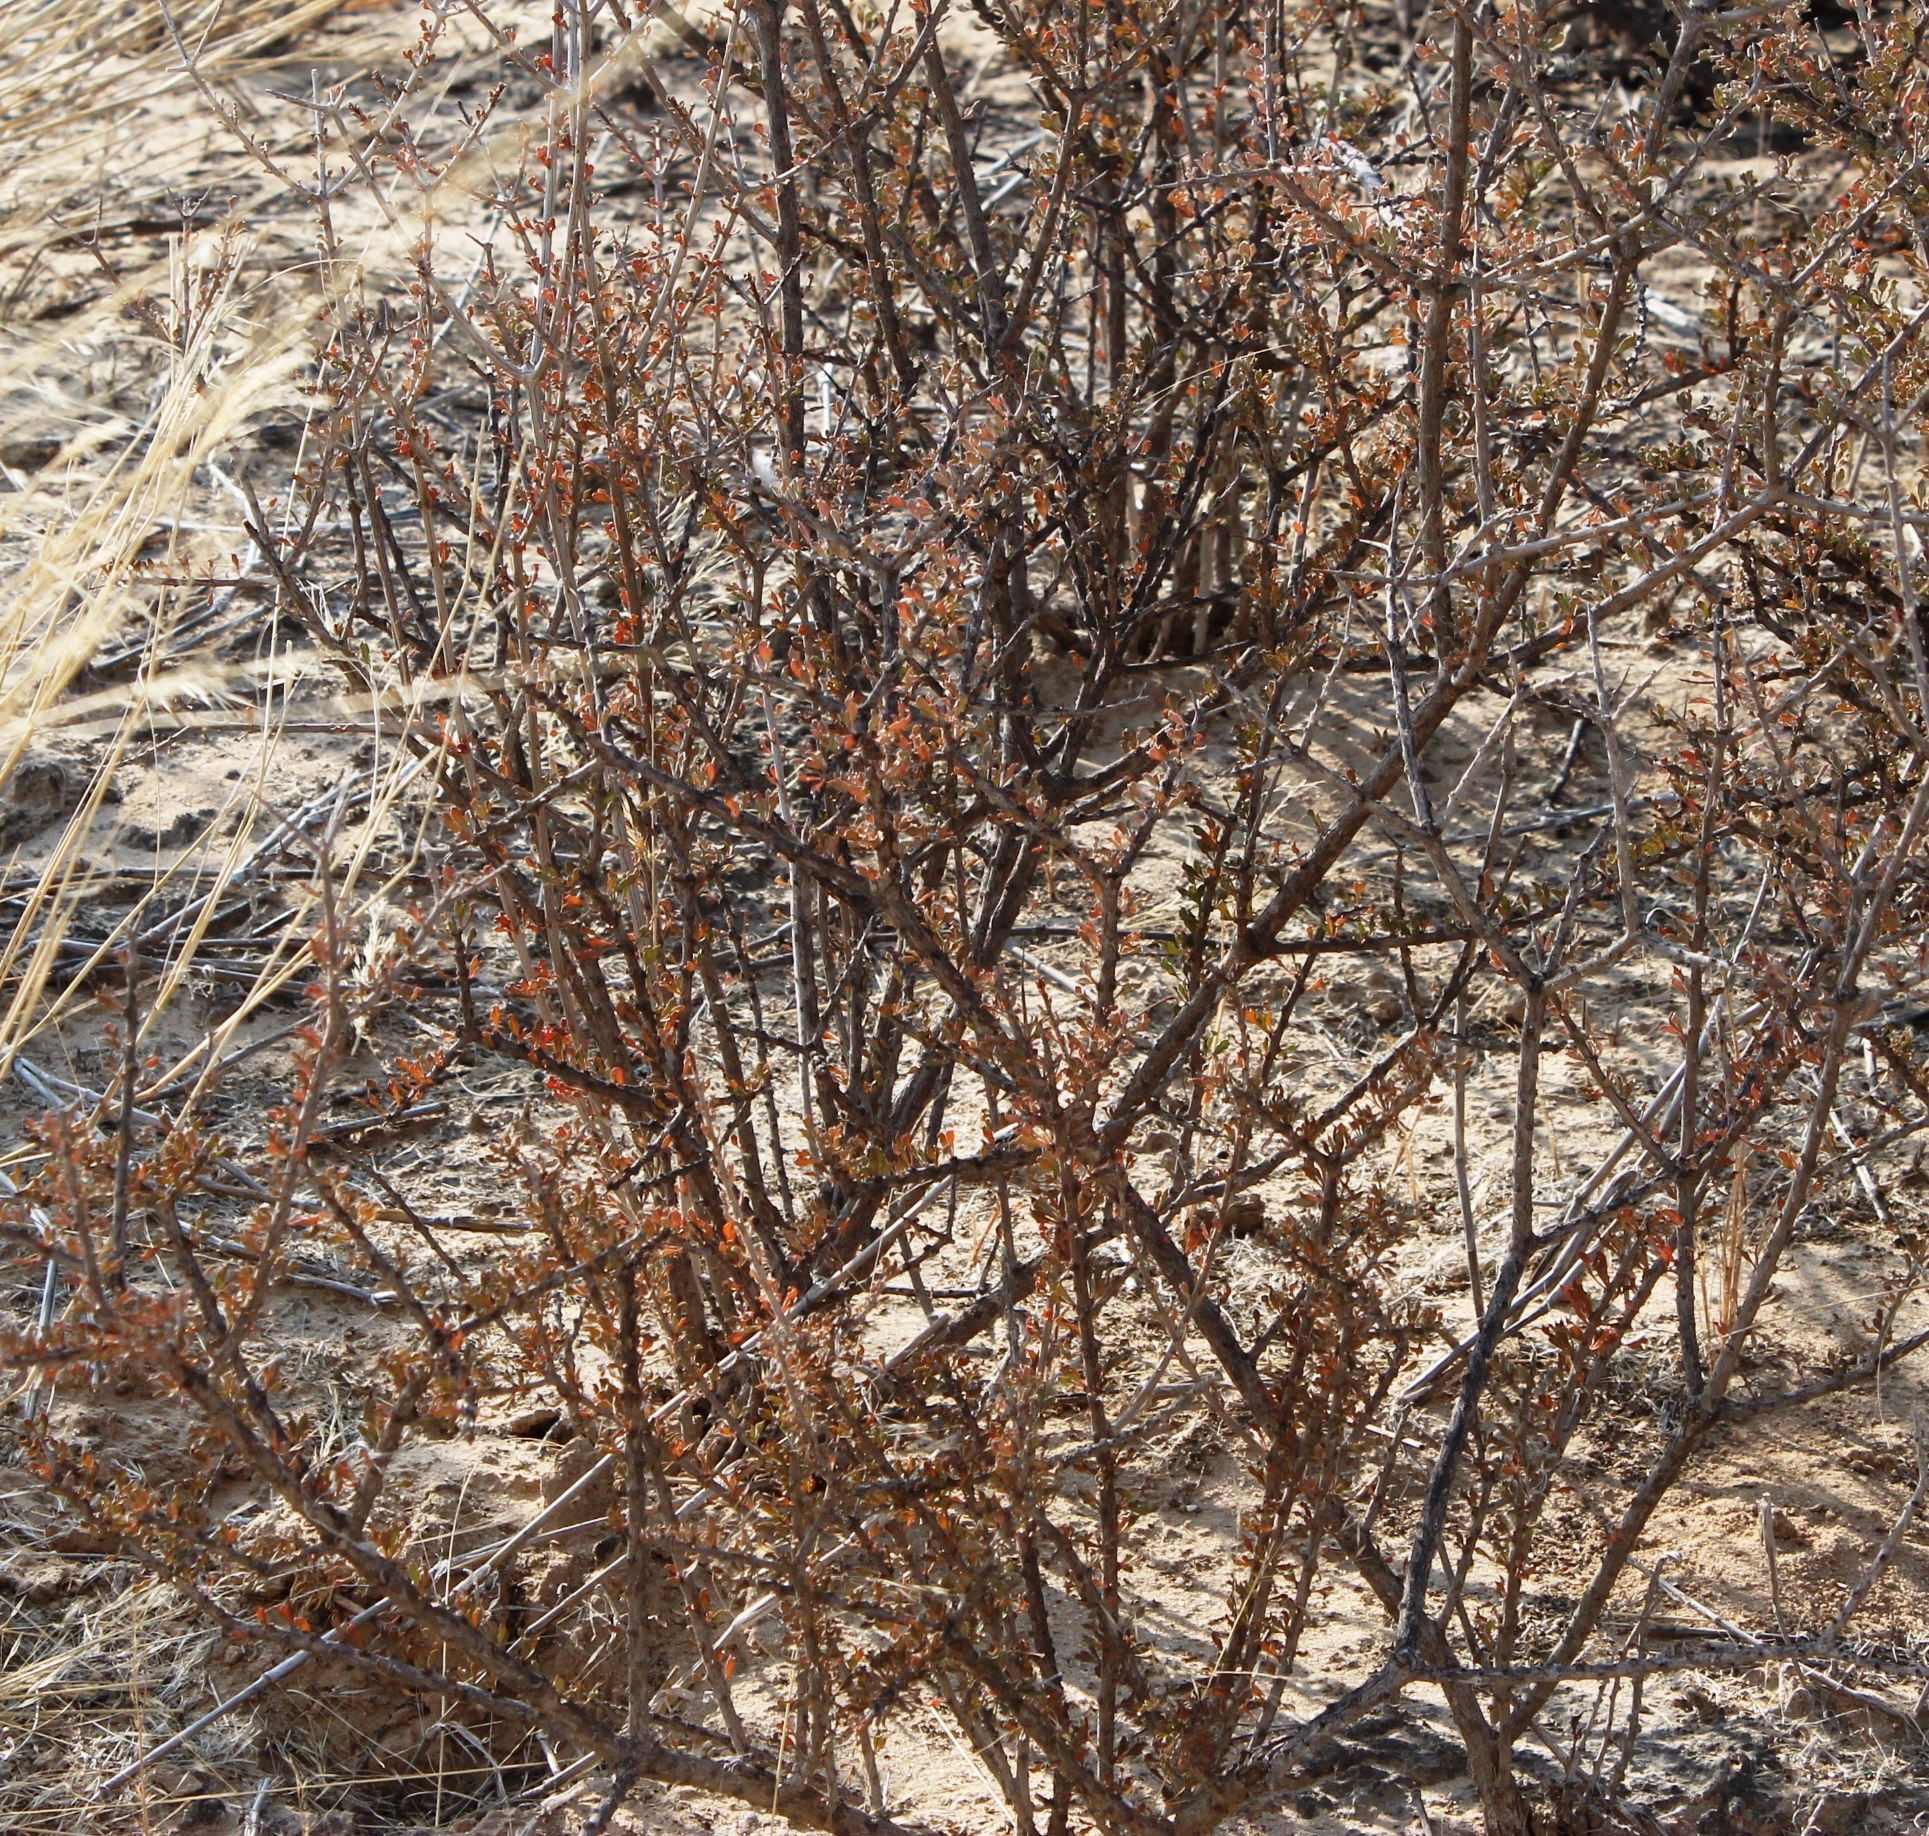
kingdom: Plantae
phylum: Tracheophyta
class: Magnoliopsida
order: Lamiales
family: Bignoniaceae
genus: Rhigozum
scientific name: Rhigozum trichotomum
